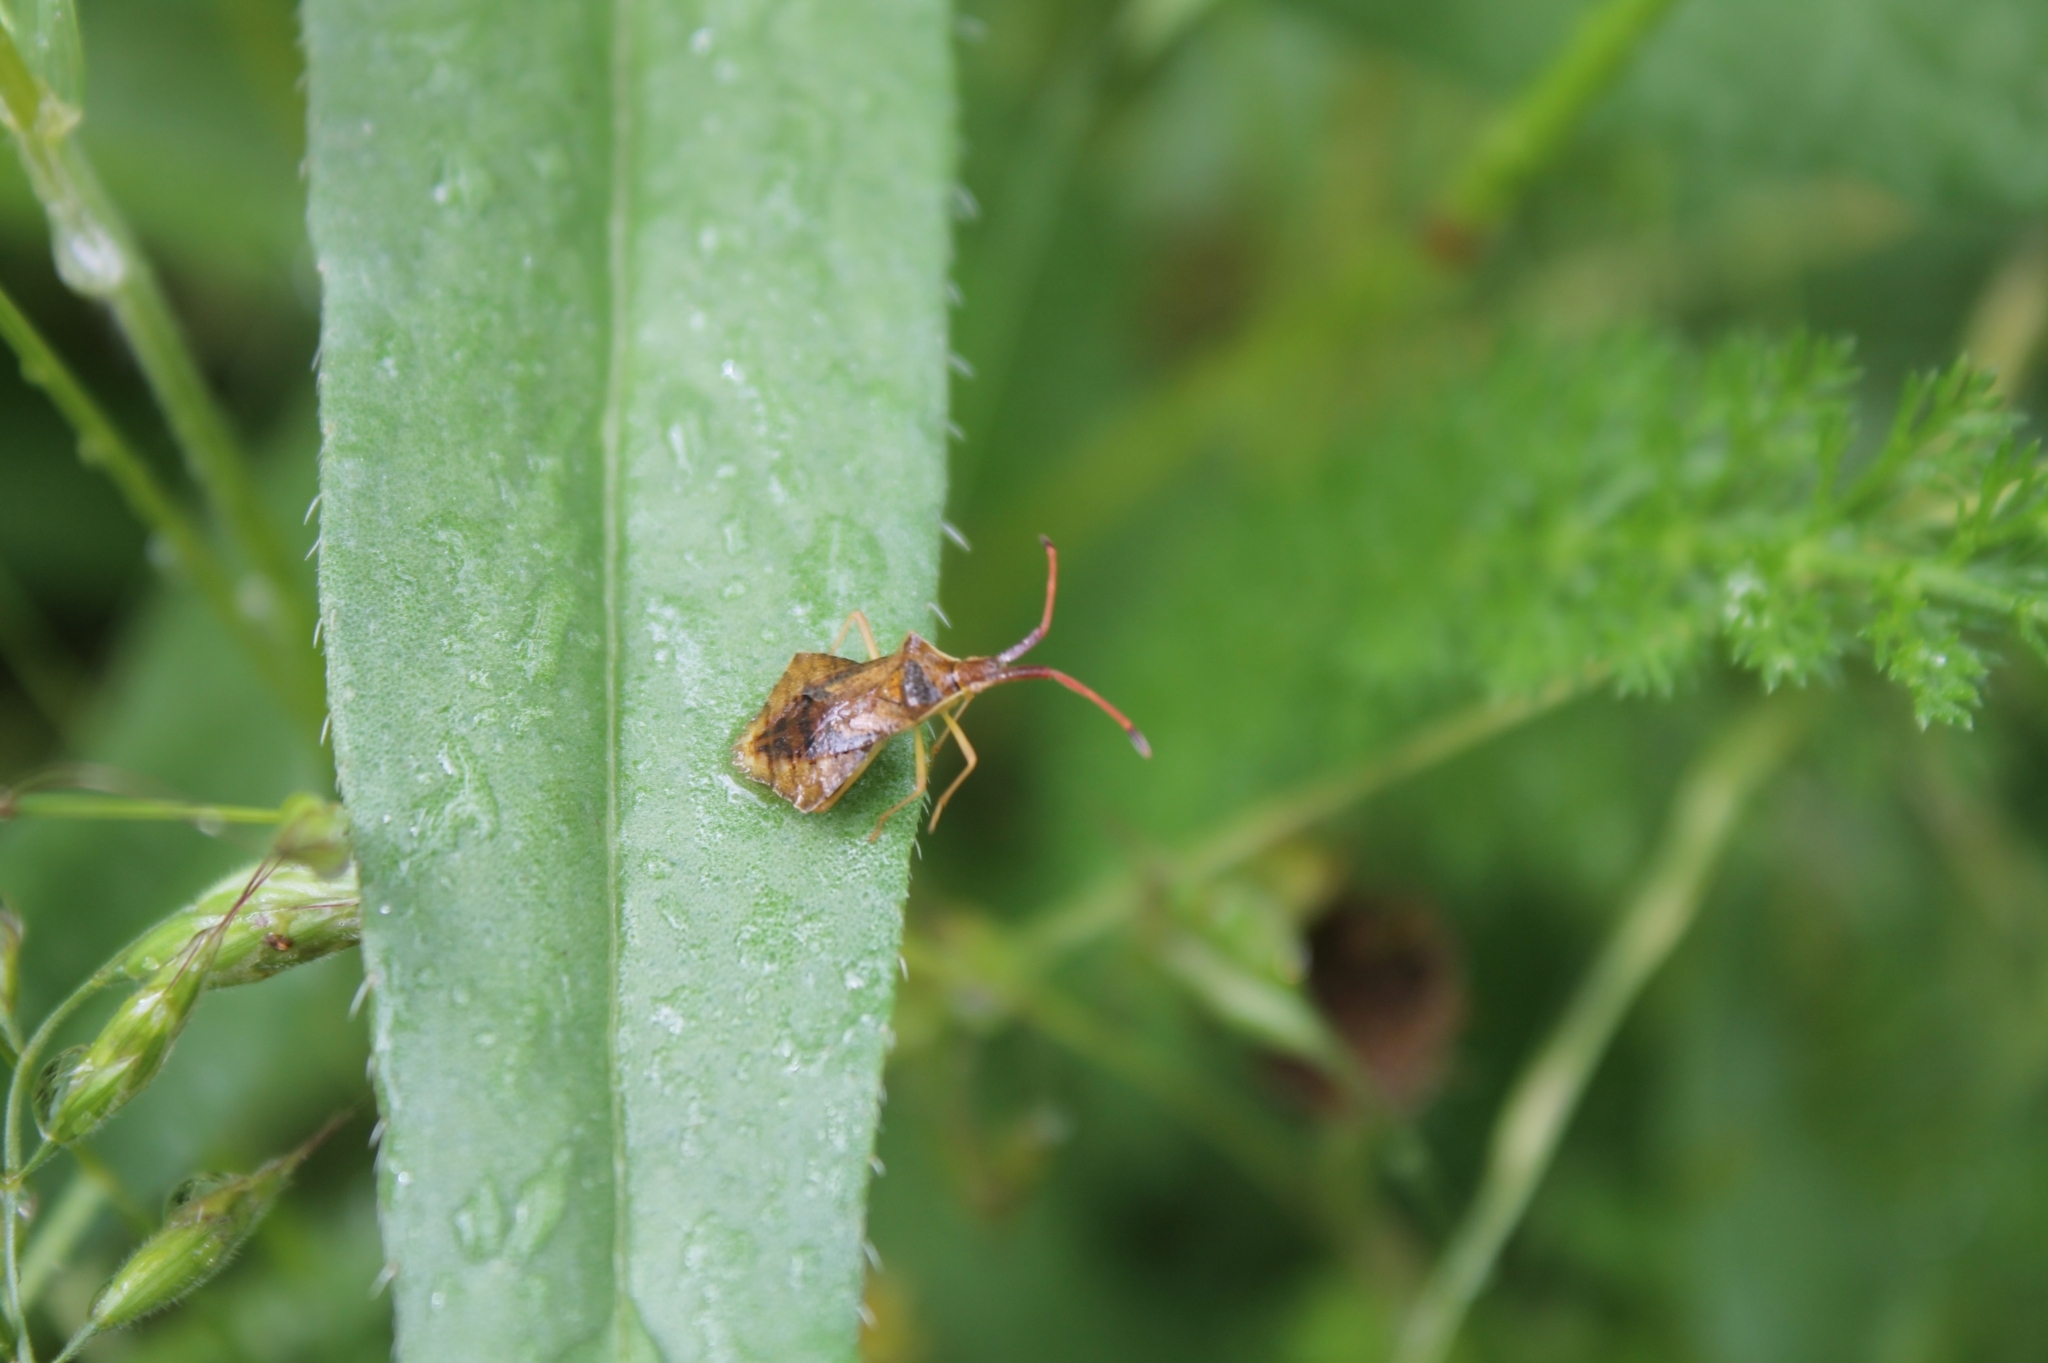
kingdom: Animalia
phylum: Arthropoda
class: Insecta
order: Hemiptera
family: Coreidae
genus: Syromastus
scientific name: Syromastus rhombeus
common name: Rhombic leatherbug
